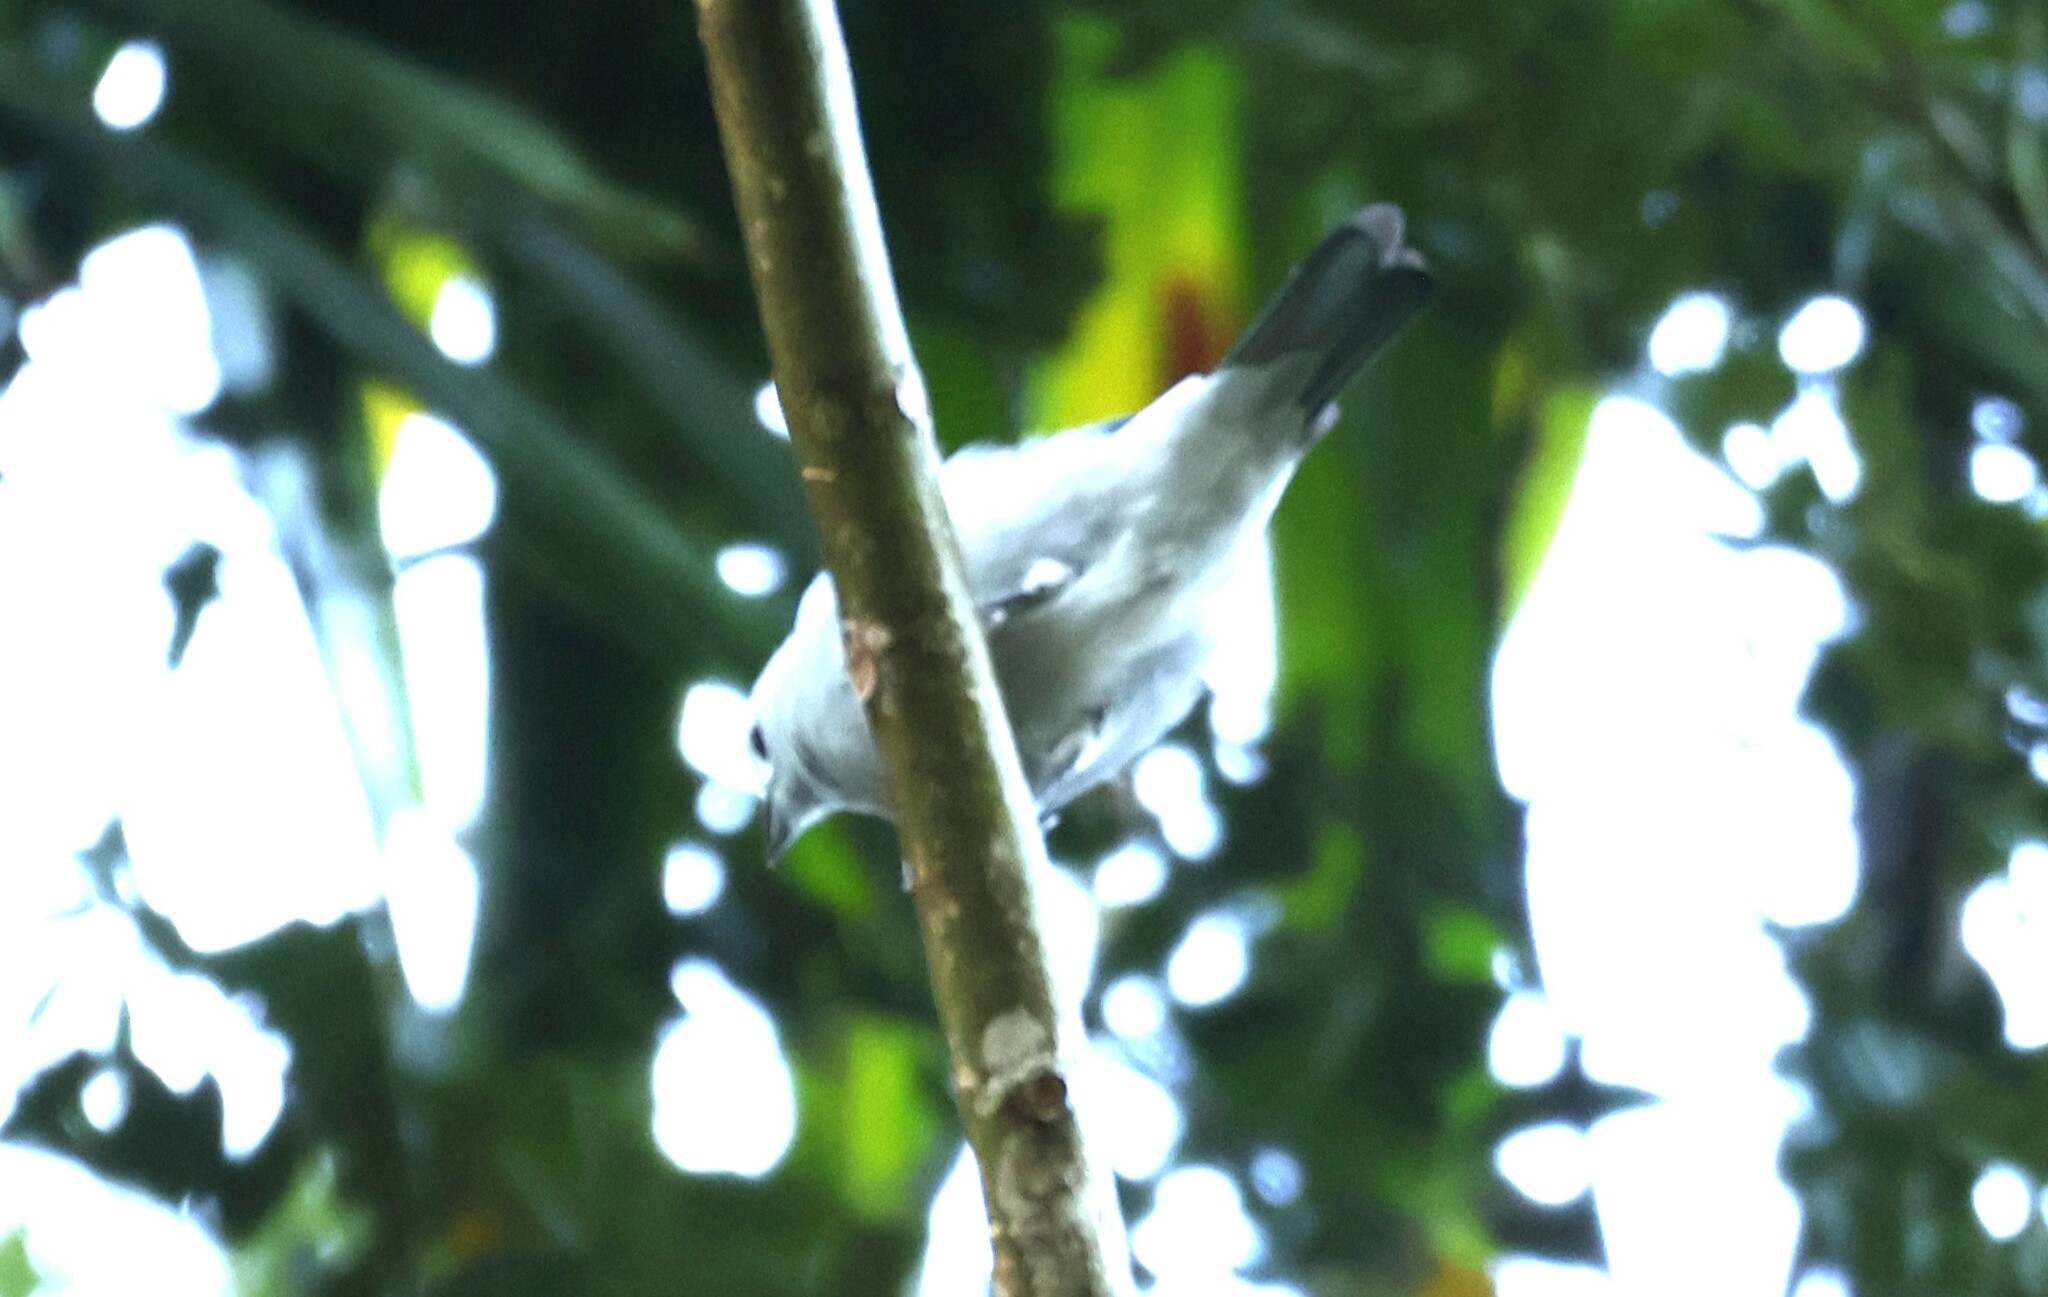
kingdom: Animalia
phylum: Chordata
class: Aves
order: Passeriformes
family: Thraupidae
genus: Thraupis
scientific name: Thraupis episcopus
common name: Blue-grey tanager
